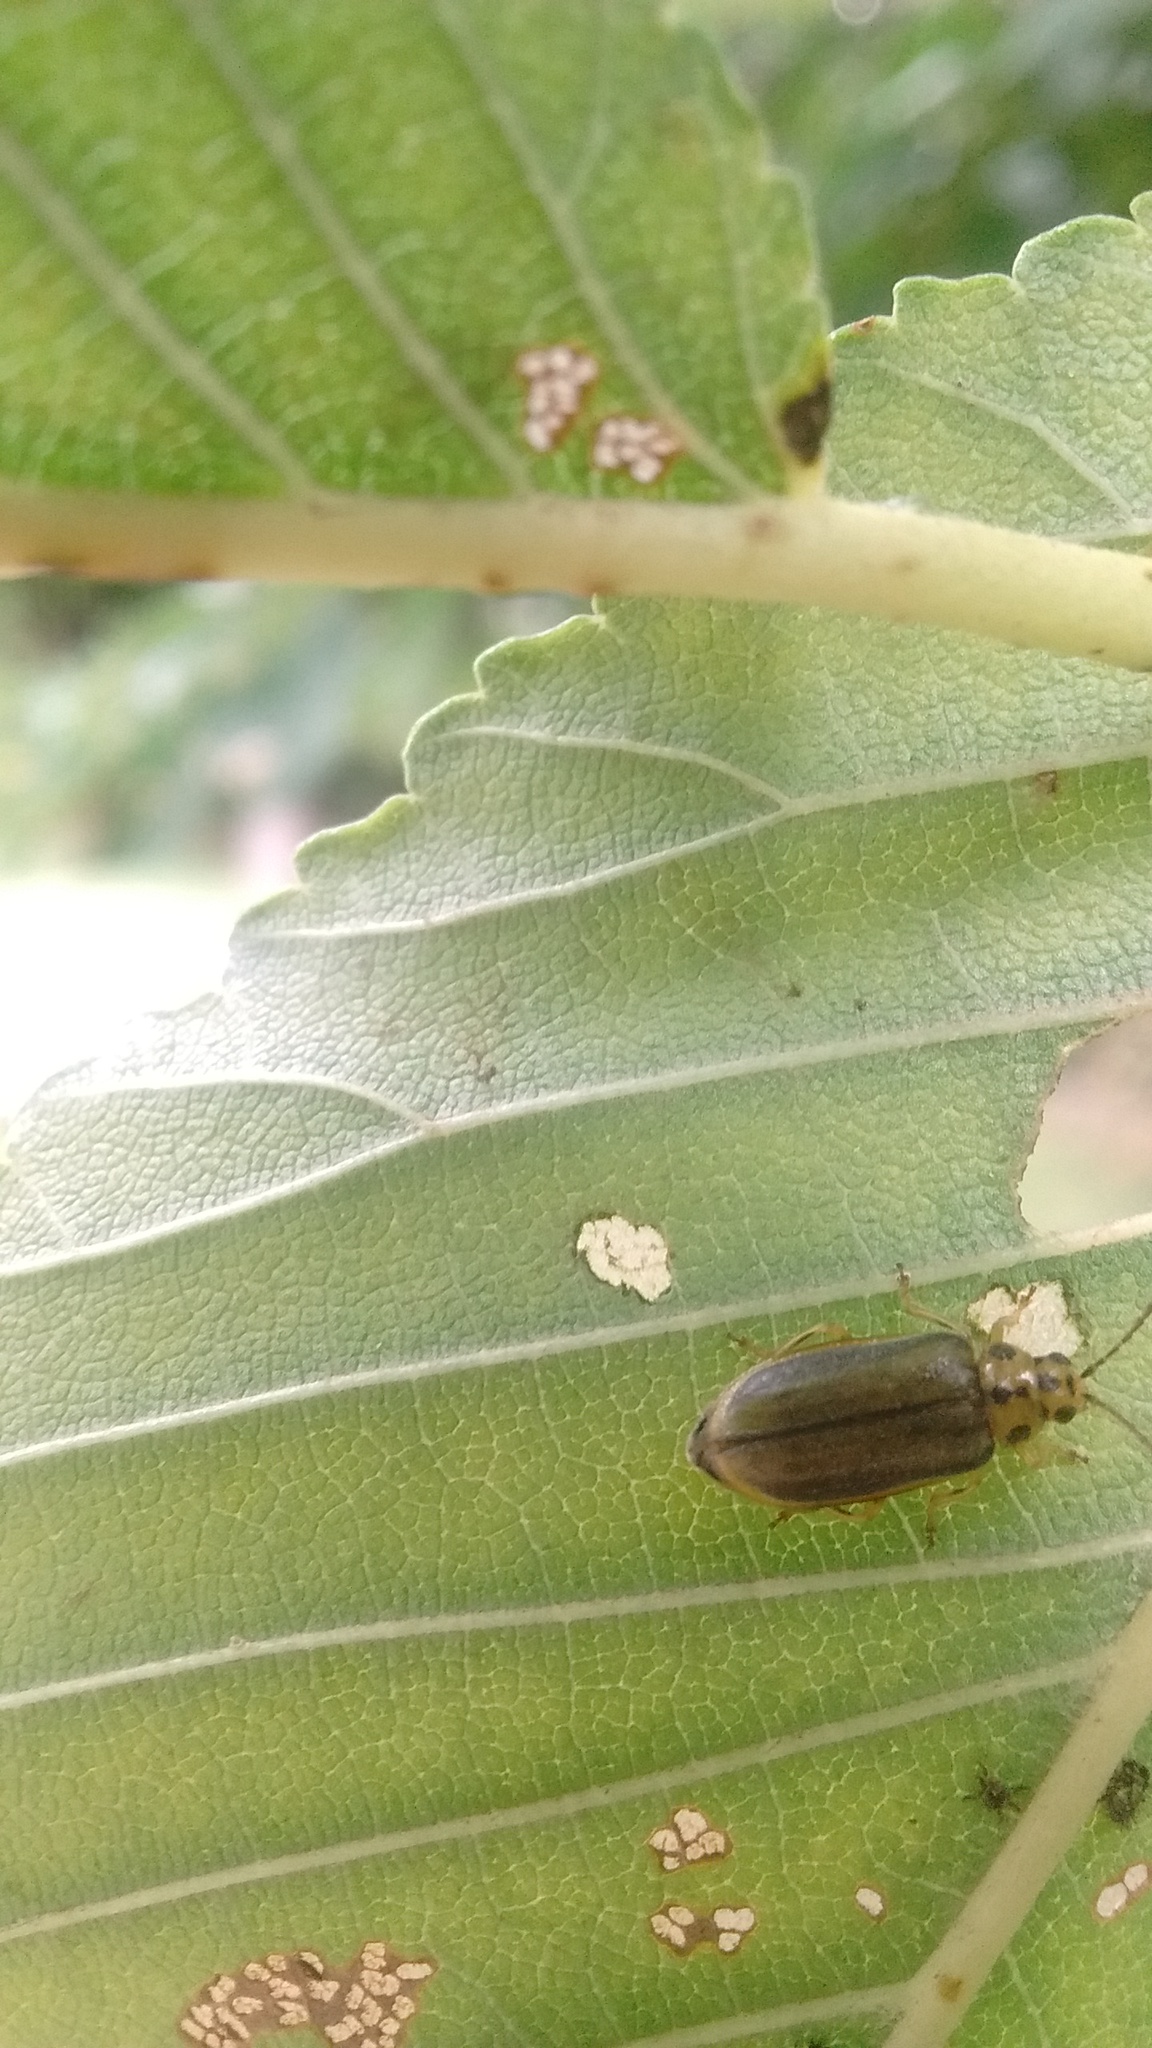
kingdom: Animalia
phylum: Arthropoda
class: Insecta
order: Coleoptera
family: Chrysomelidae
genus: Xanthogaleruca
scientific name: Xanthogaleruca luteola
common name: Elm leaf beetle
